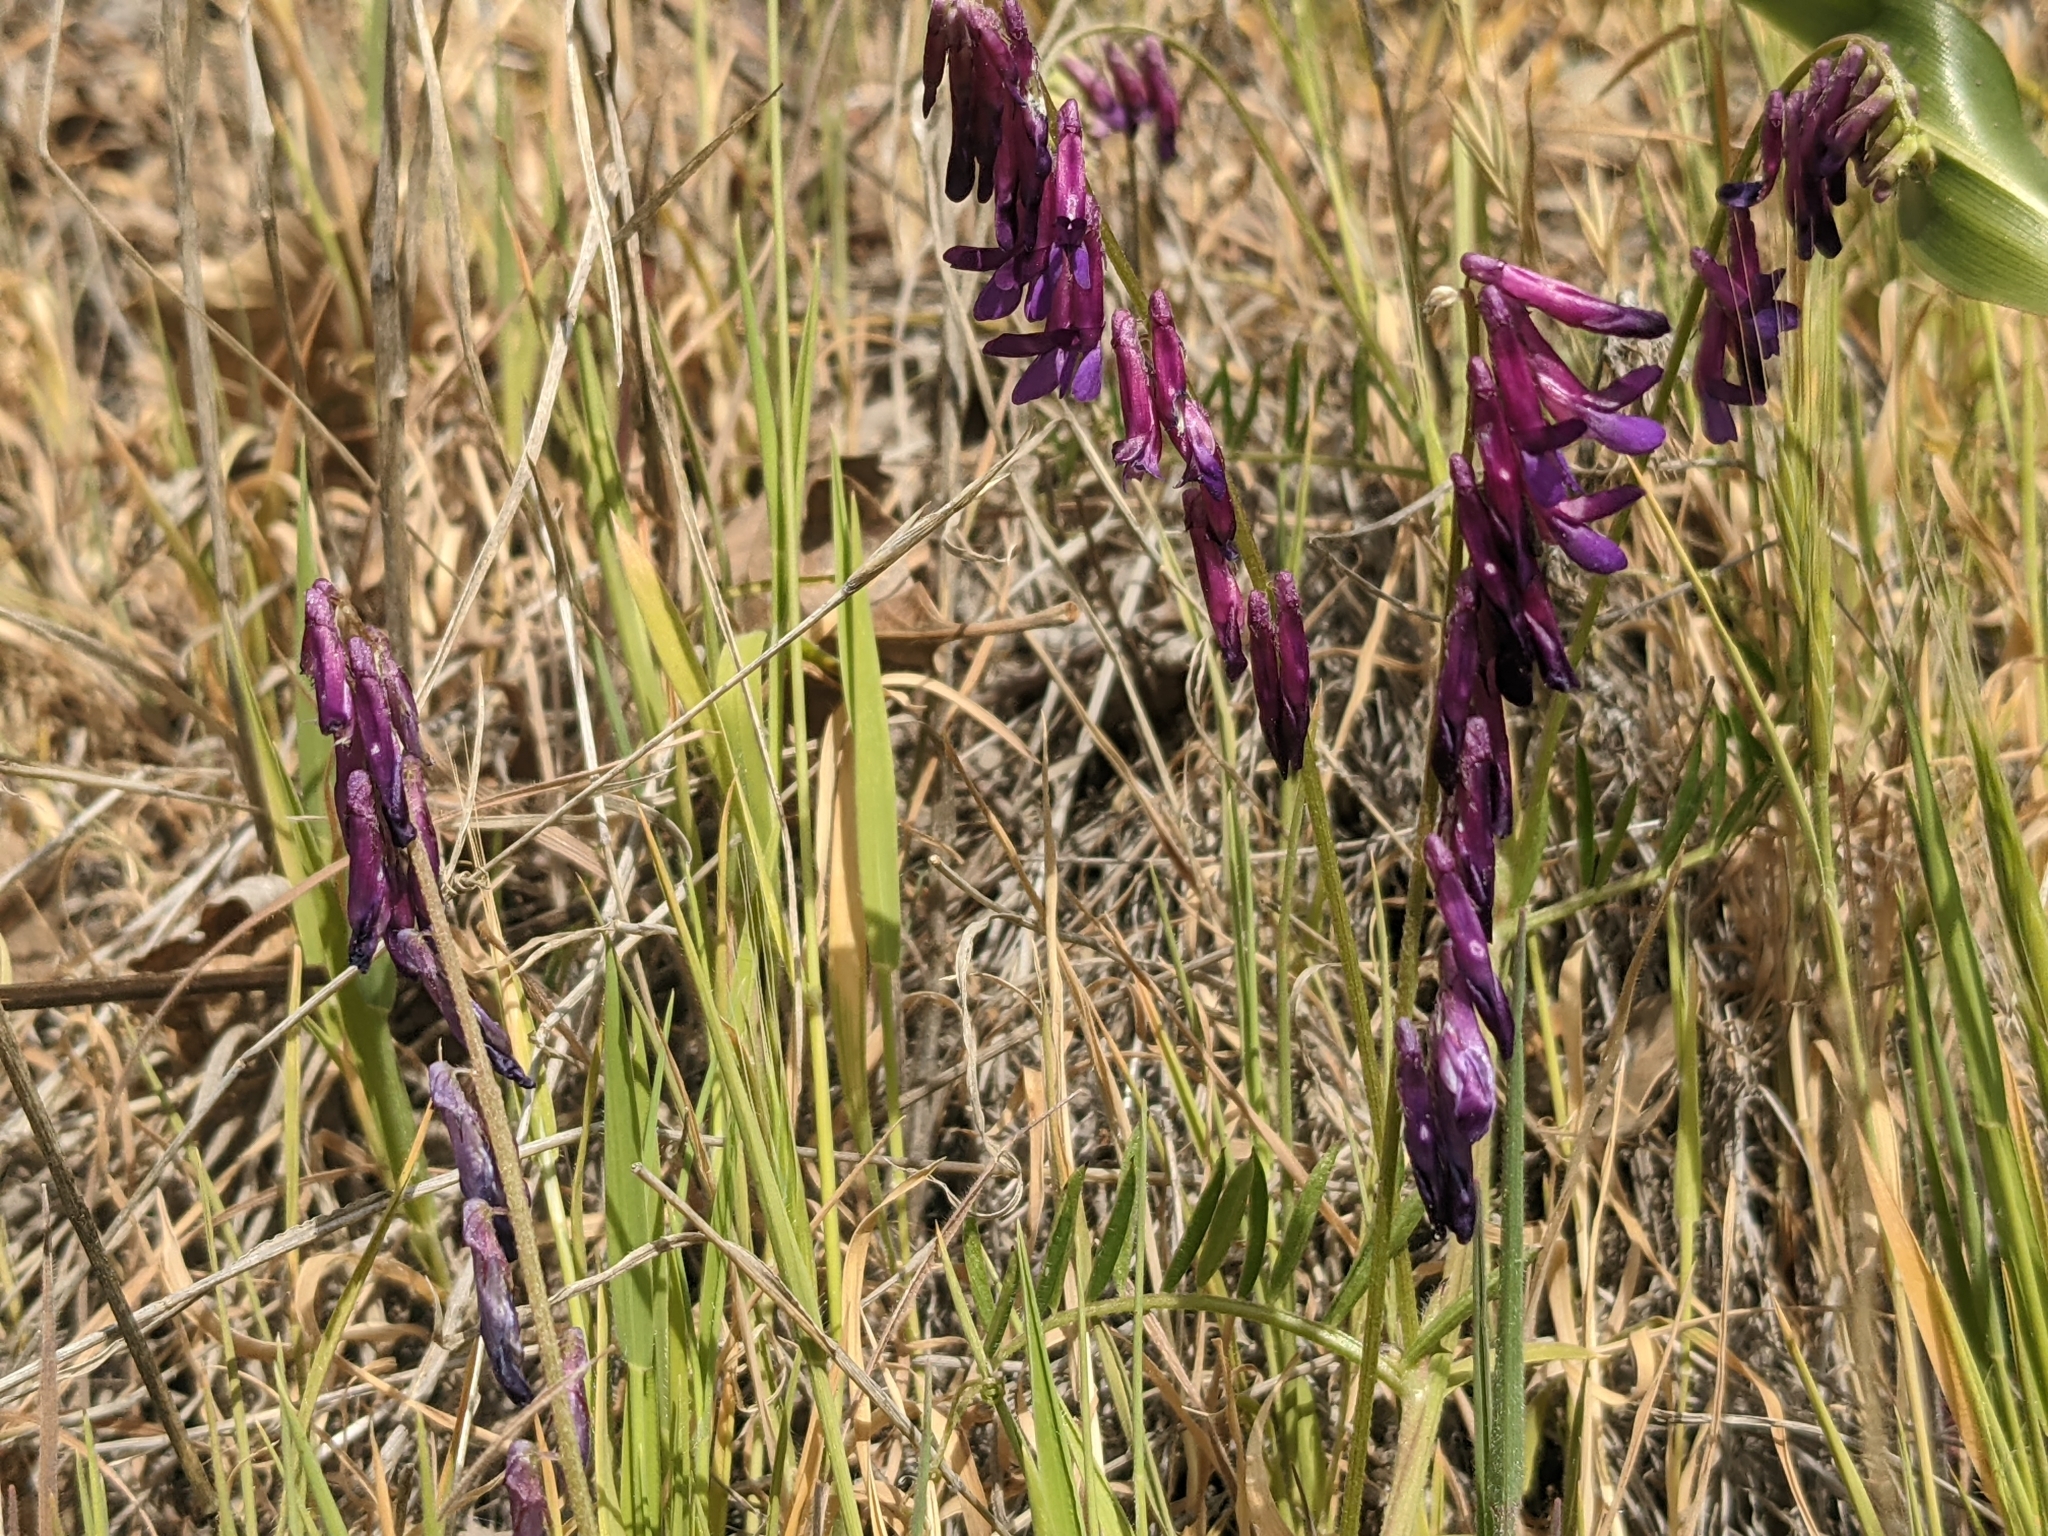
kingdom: Plantae
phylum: Tracheophyta
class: Magnoliopsida
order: Fabales
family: Fabaceae
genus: Vicia
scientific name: Vicia villosa
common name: Fodder vetch
